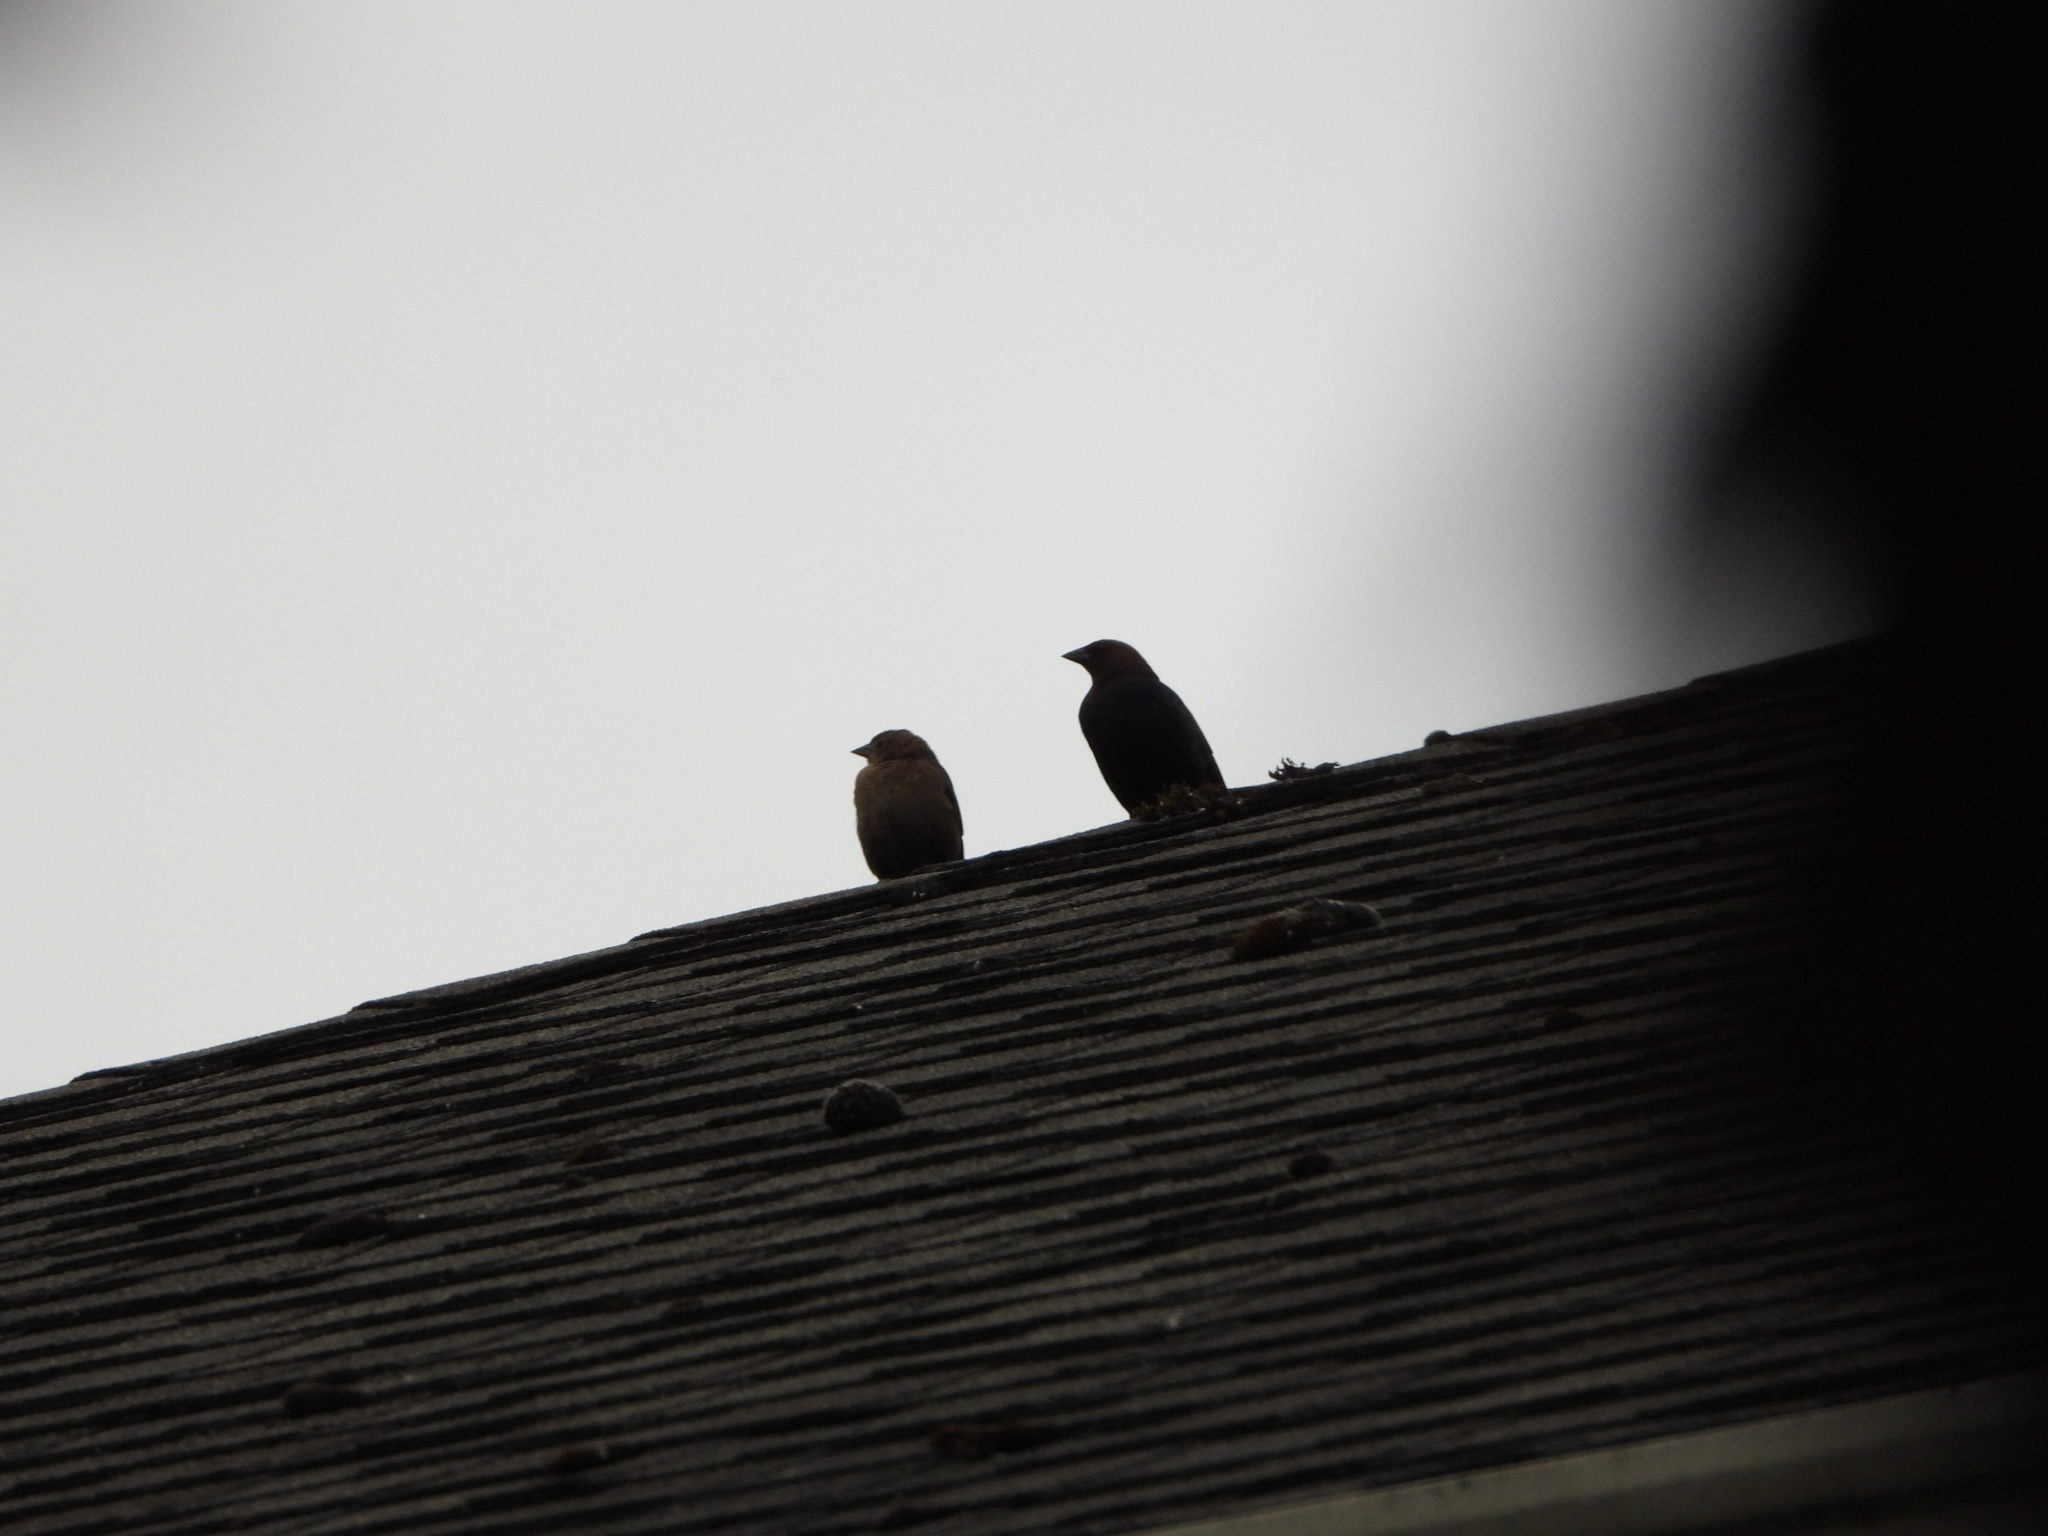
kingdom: Animalia
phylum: Chordata
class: Aves
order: Passeriformes
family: Icteridae
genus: Molothrus
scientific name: Molothrus ater
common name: Brown-headed cowbird
